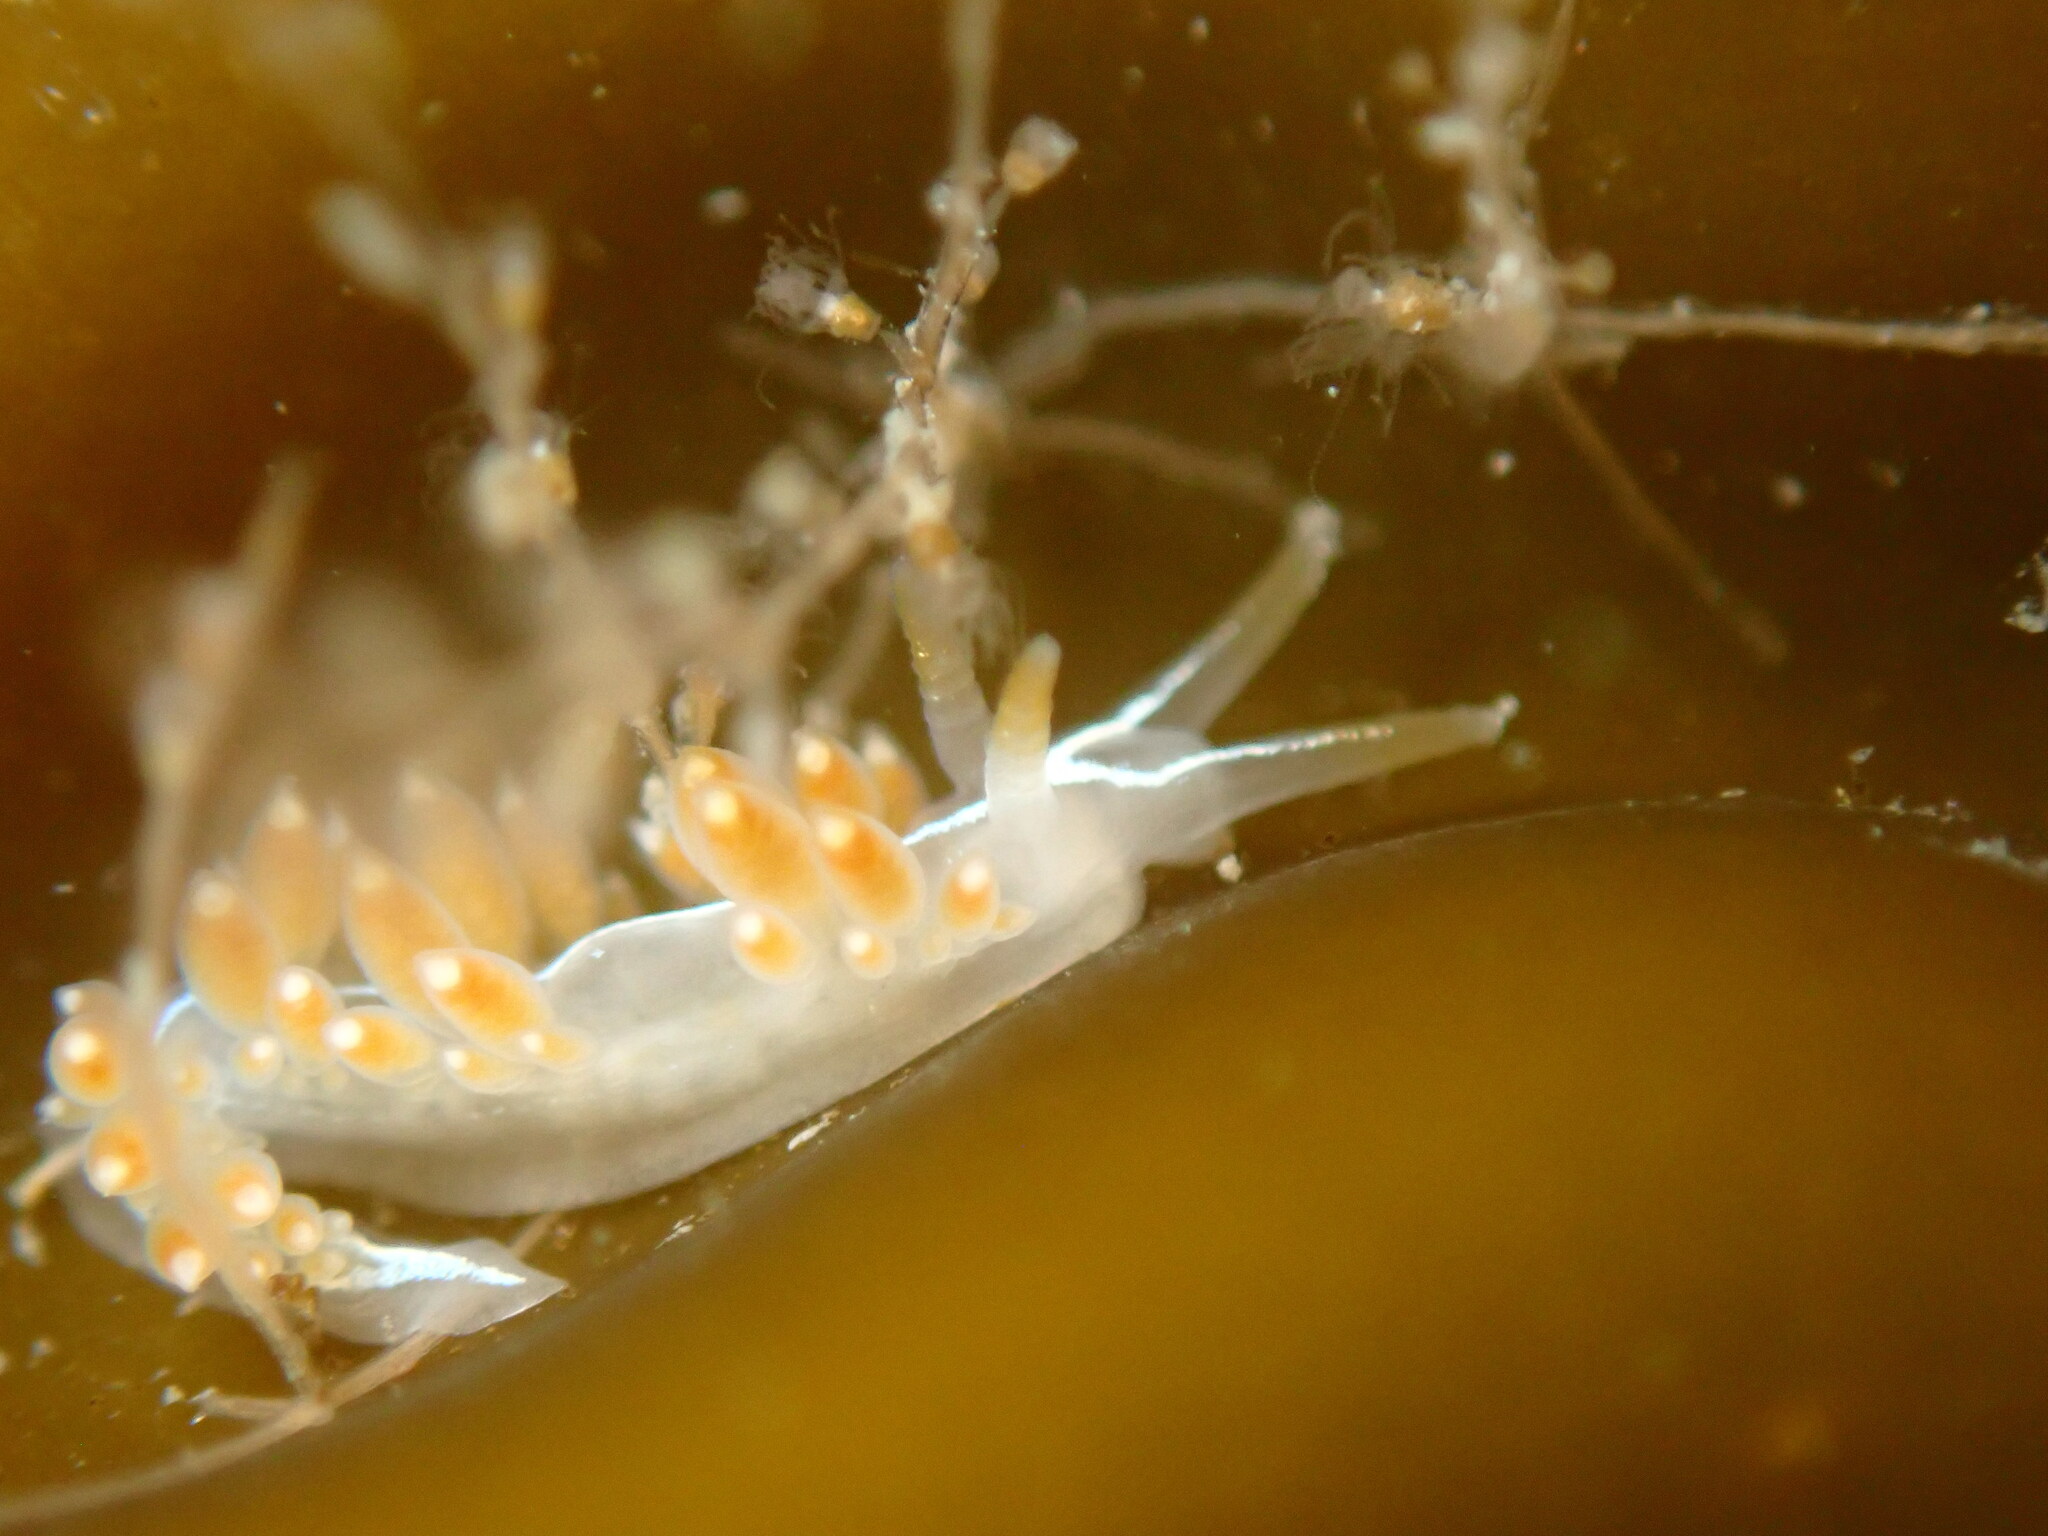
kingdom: Animalia
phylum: Mollusca
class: Gastropoda
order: Nudibranchia
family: Coryphellidae
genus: Coryphella
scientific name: Coryphella trilineata
